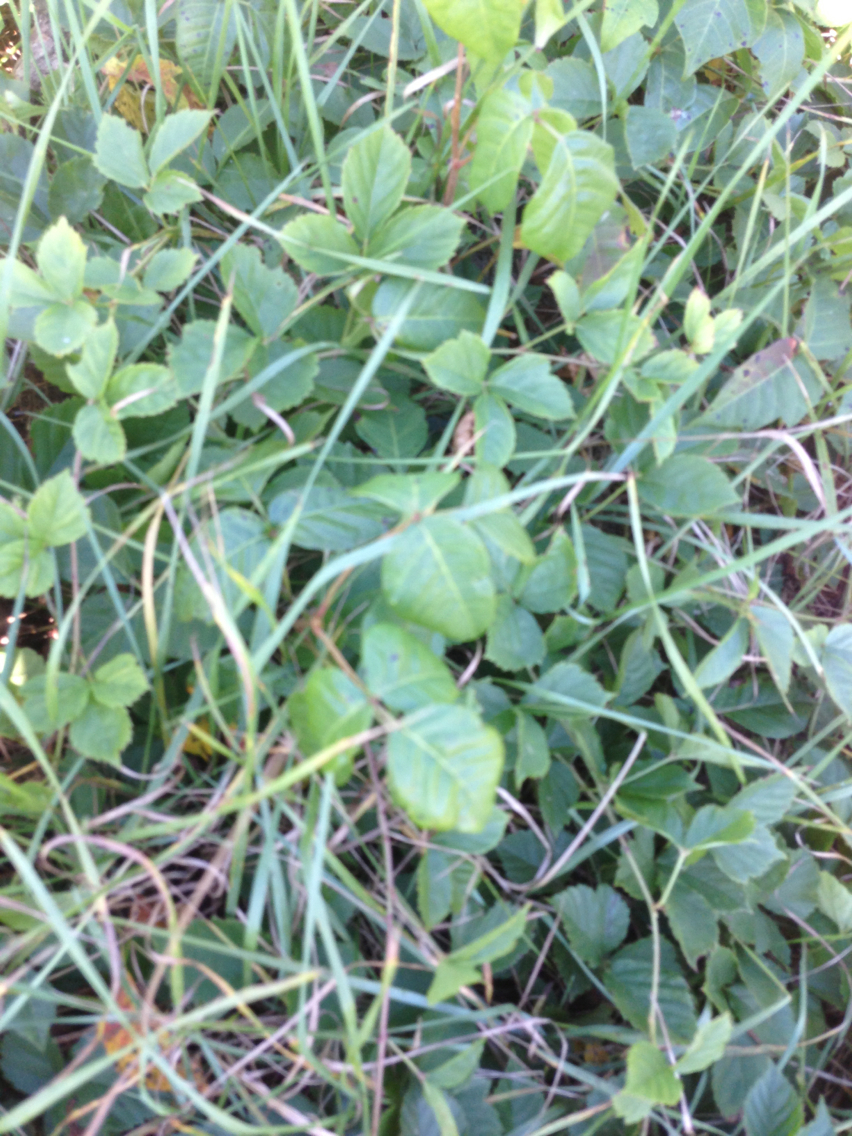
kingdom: Plantae
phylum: Tracheophyta
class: Magnoliopsida
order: Sapindales
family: Anacardiaceae
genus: Toxicodendron
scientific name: Toxicodendron radicans
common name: Poison ivy
